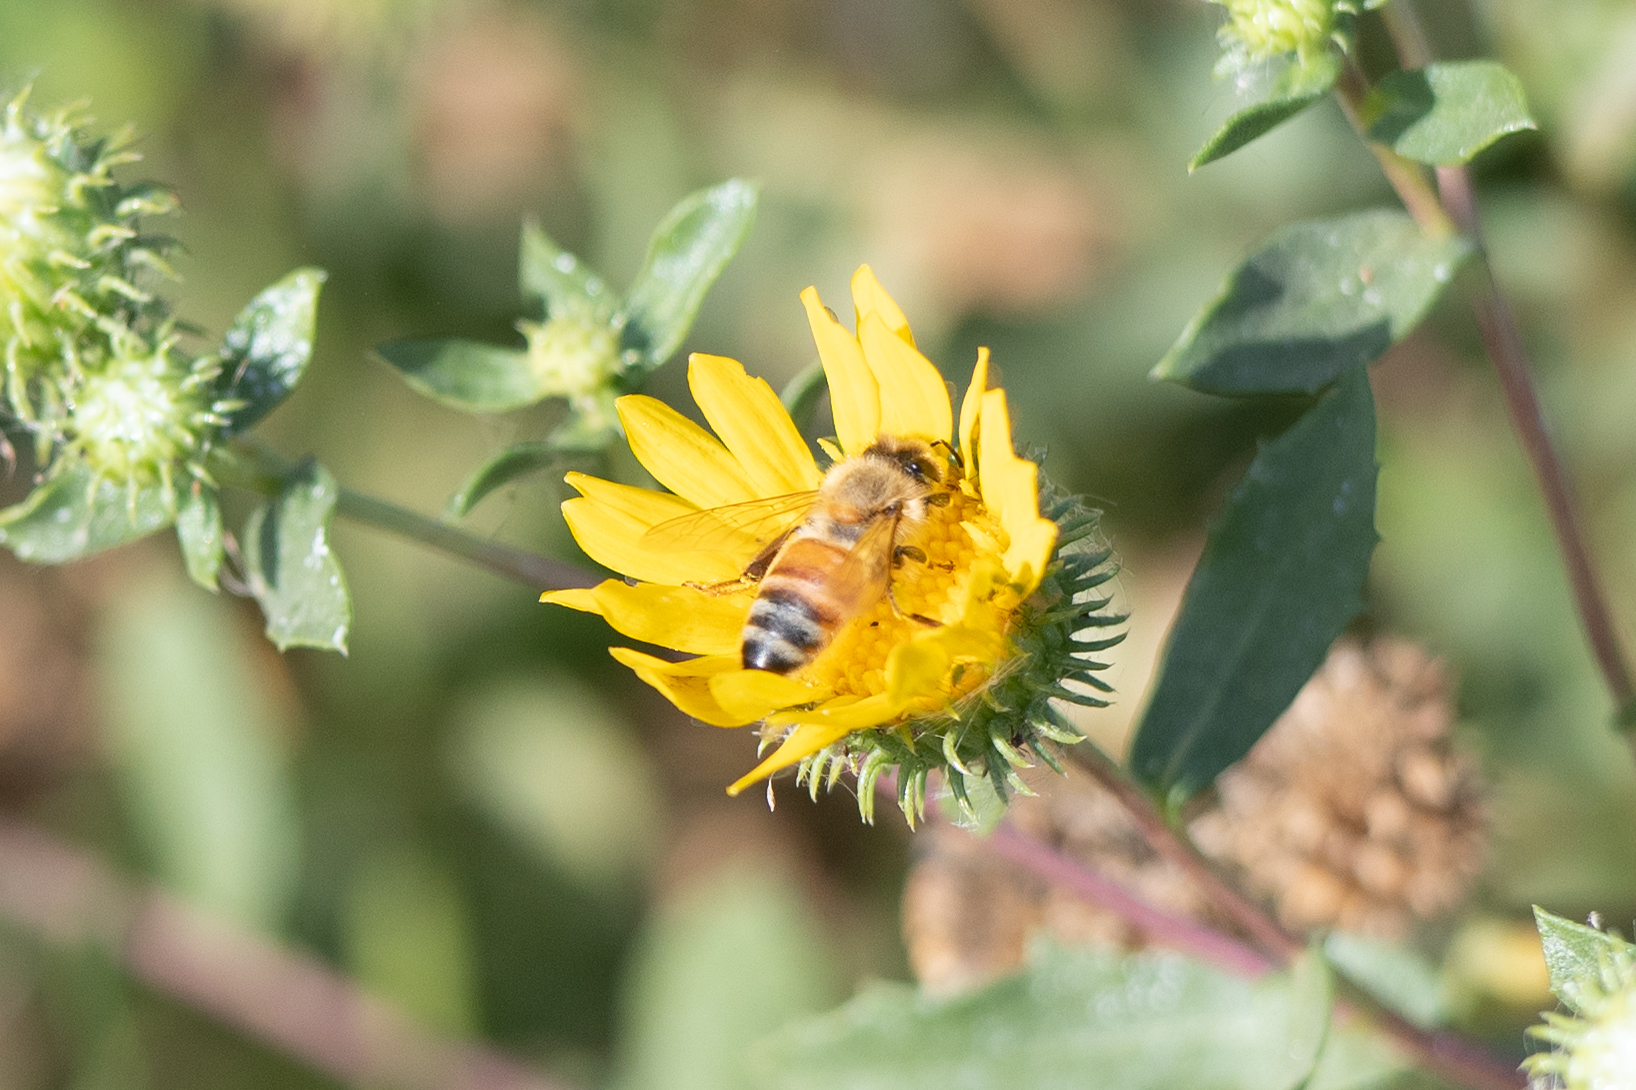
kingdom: Animalia
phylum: Arthropoda
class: Insecta
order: Hymenoptera
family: Apidae
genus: Apis
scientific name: Apis mellifera
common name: Honey bee
